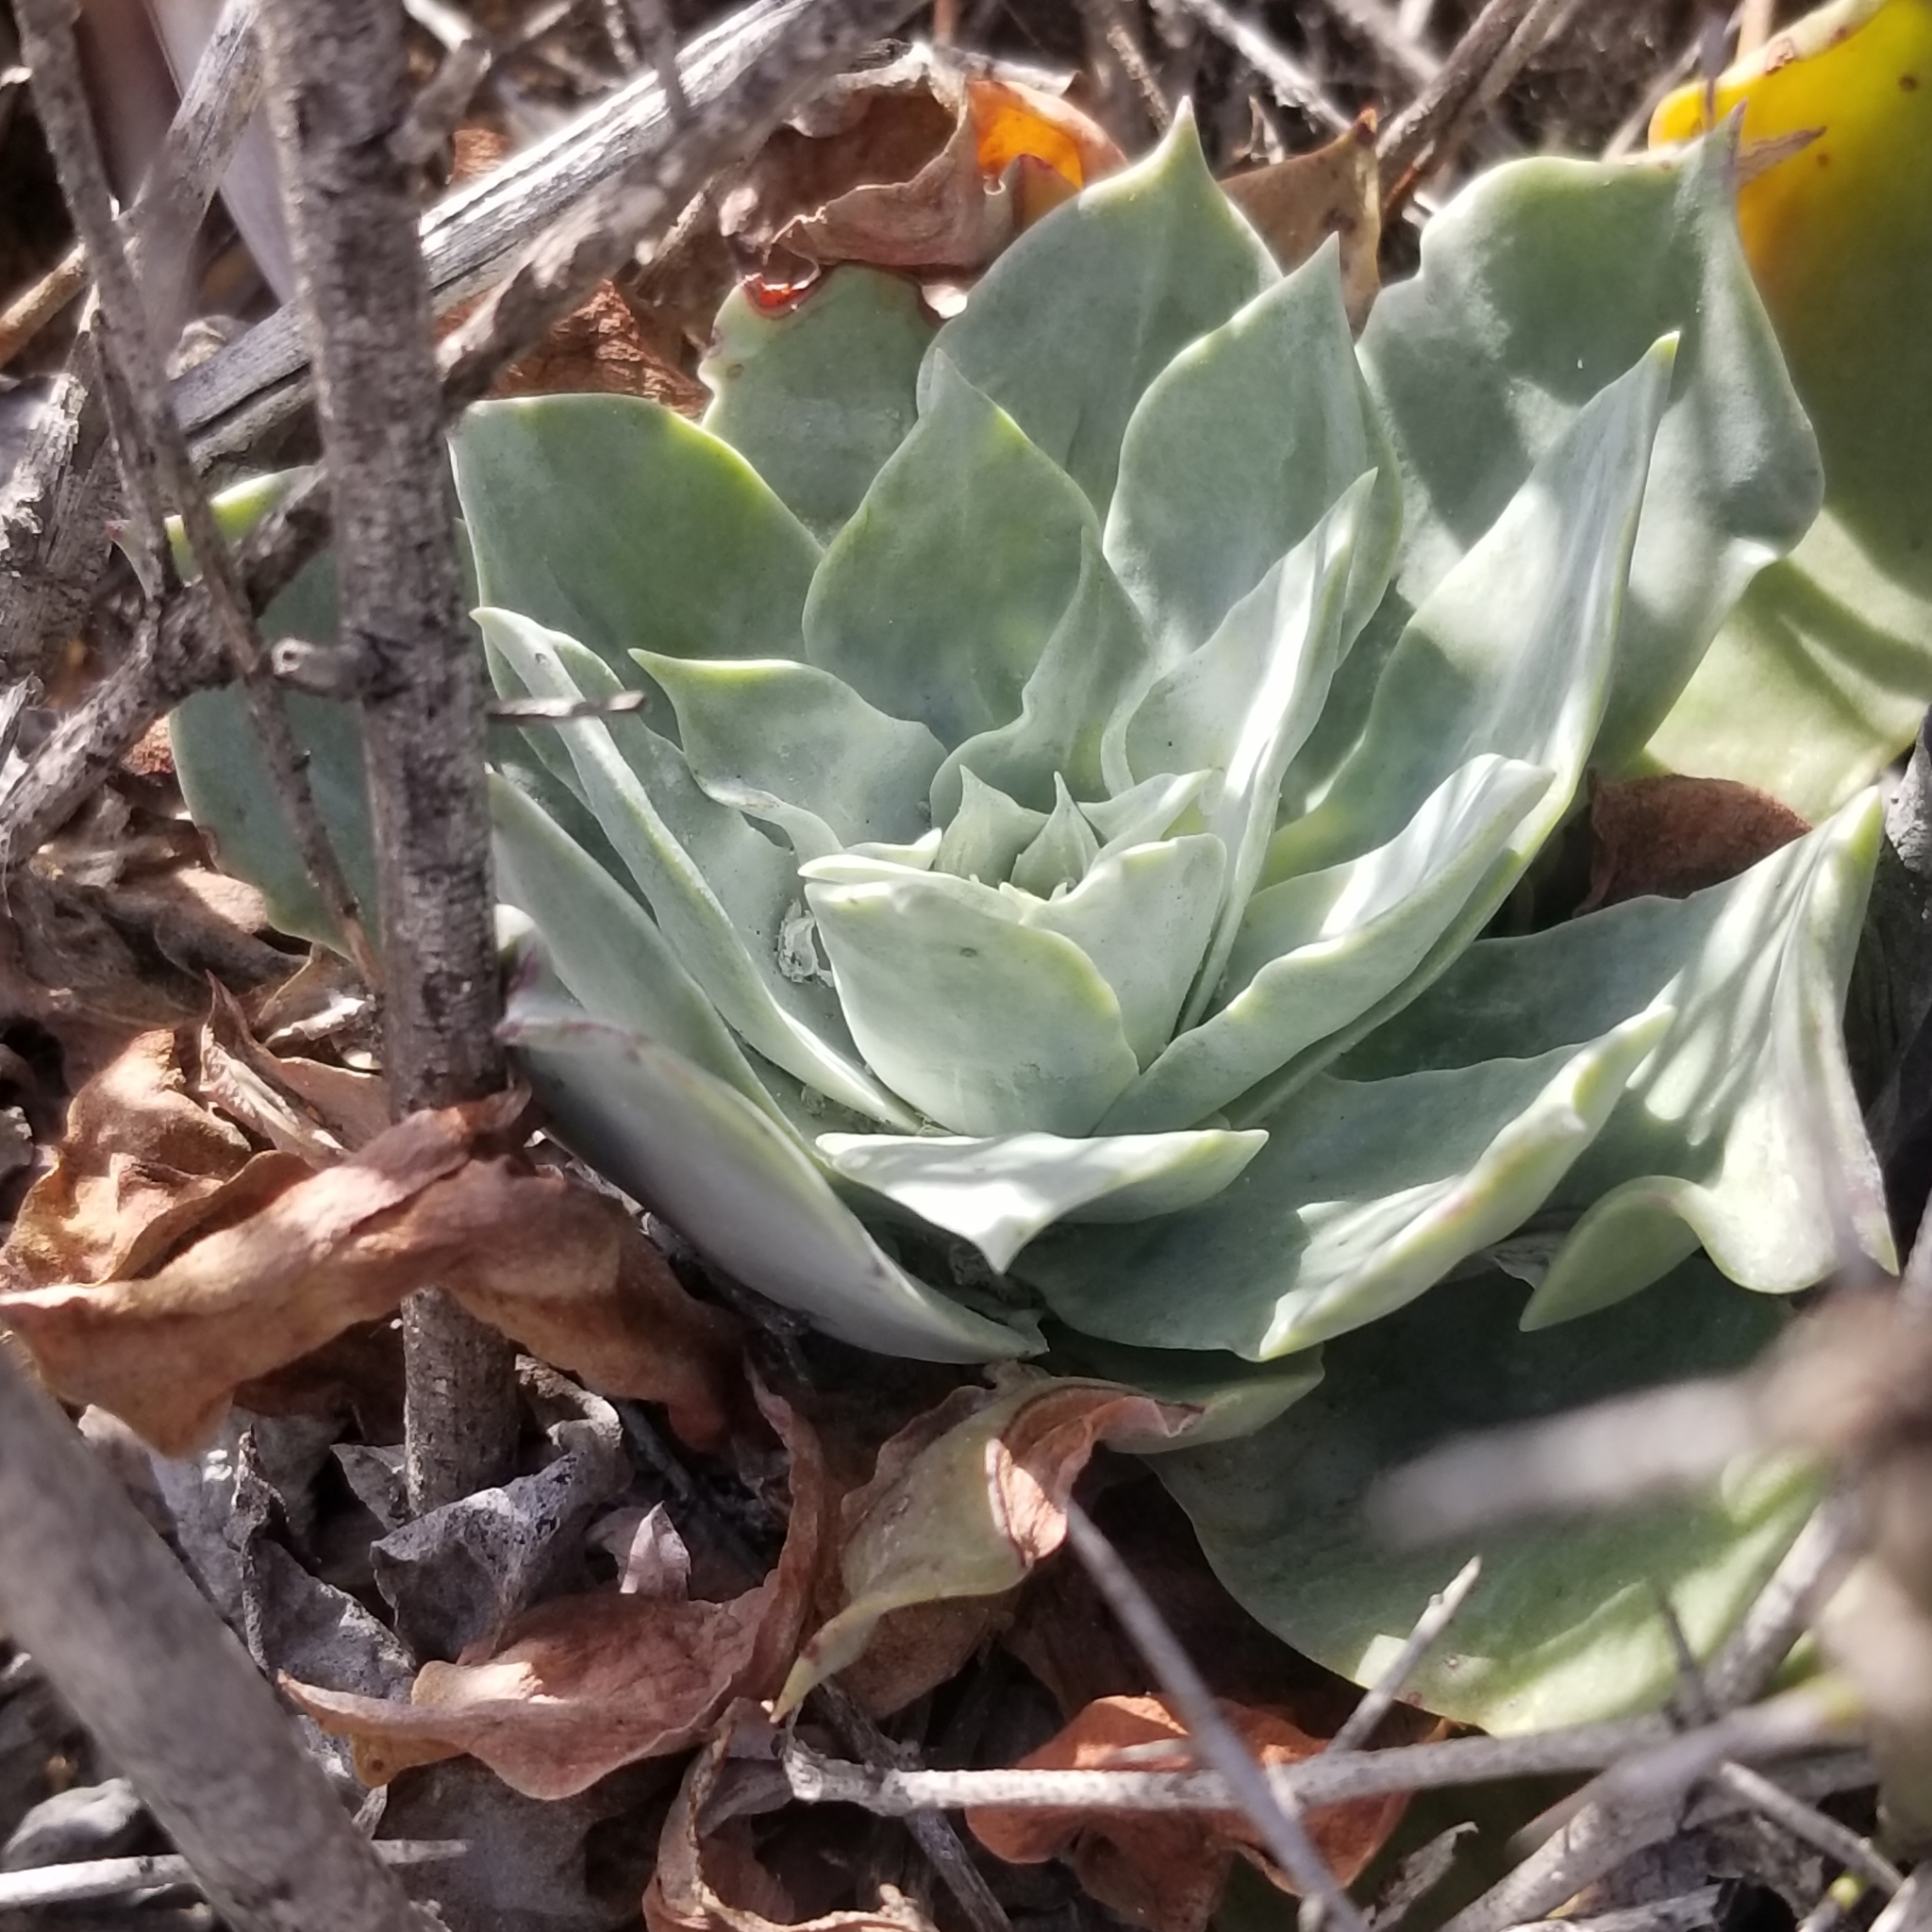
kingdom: Plantae
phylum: Tracheophyta
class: Magnoliopsida
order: Saxifragales
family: Crassulaceae
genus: Dudleya
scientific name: Dudleya pulverulenta
